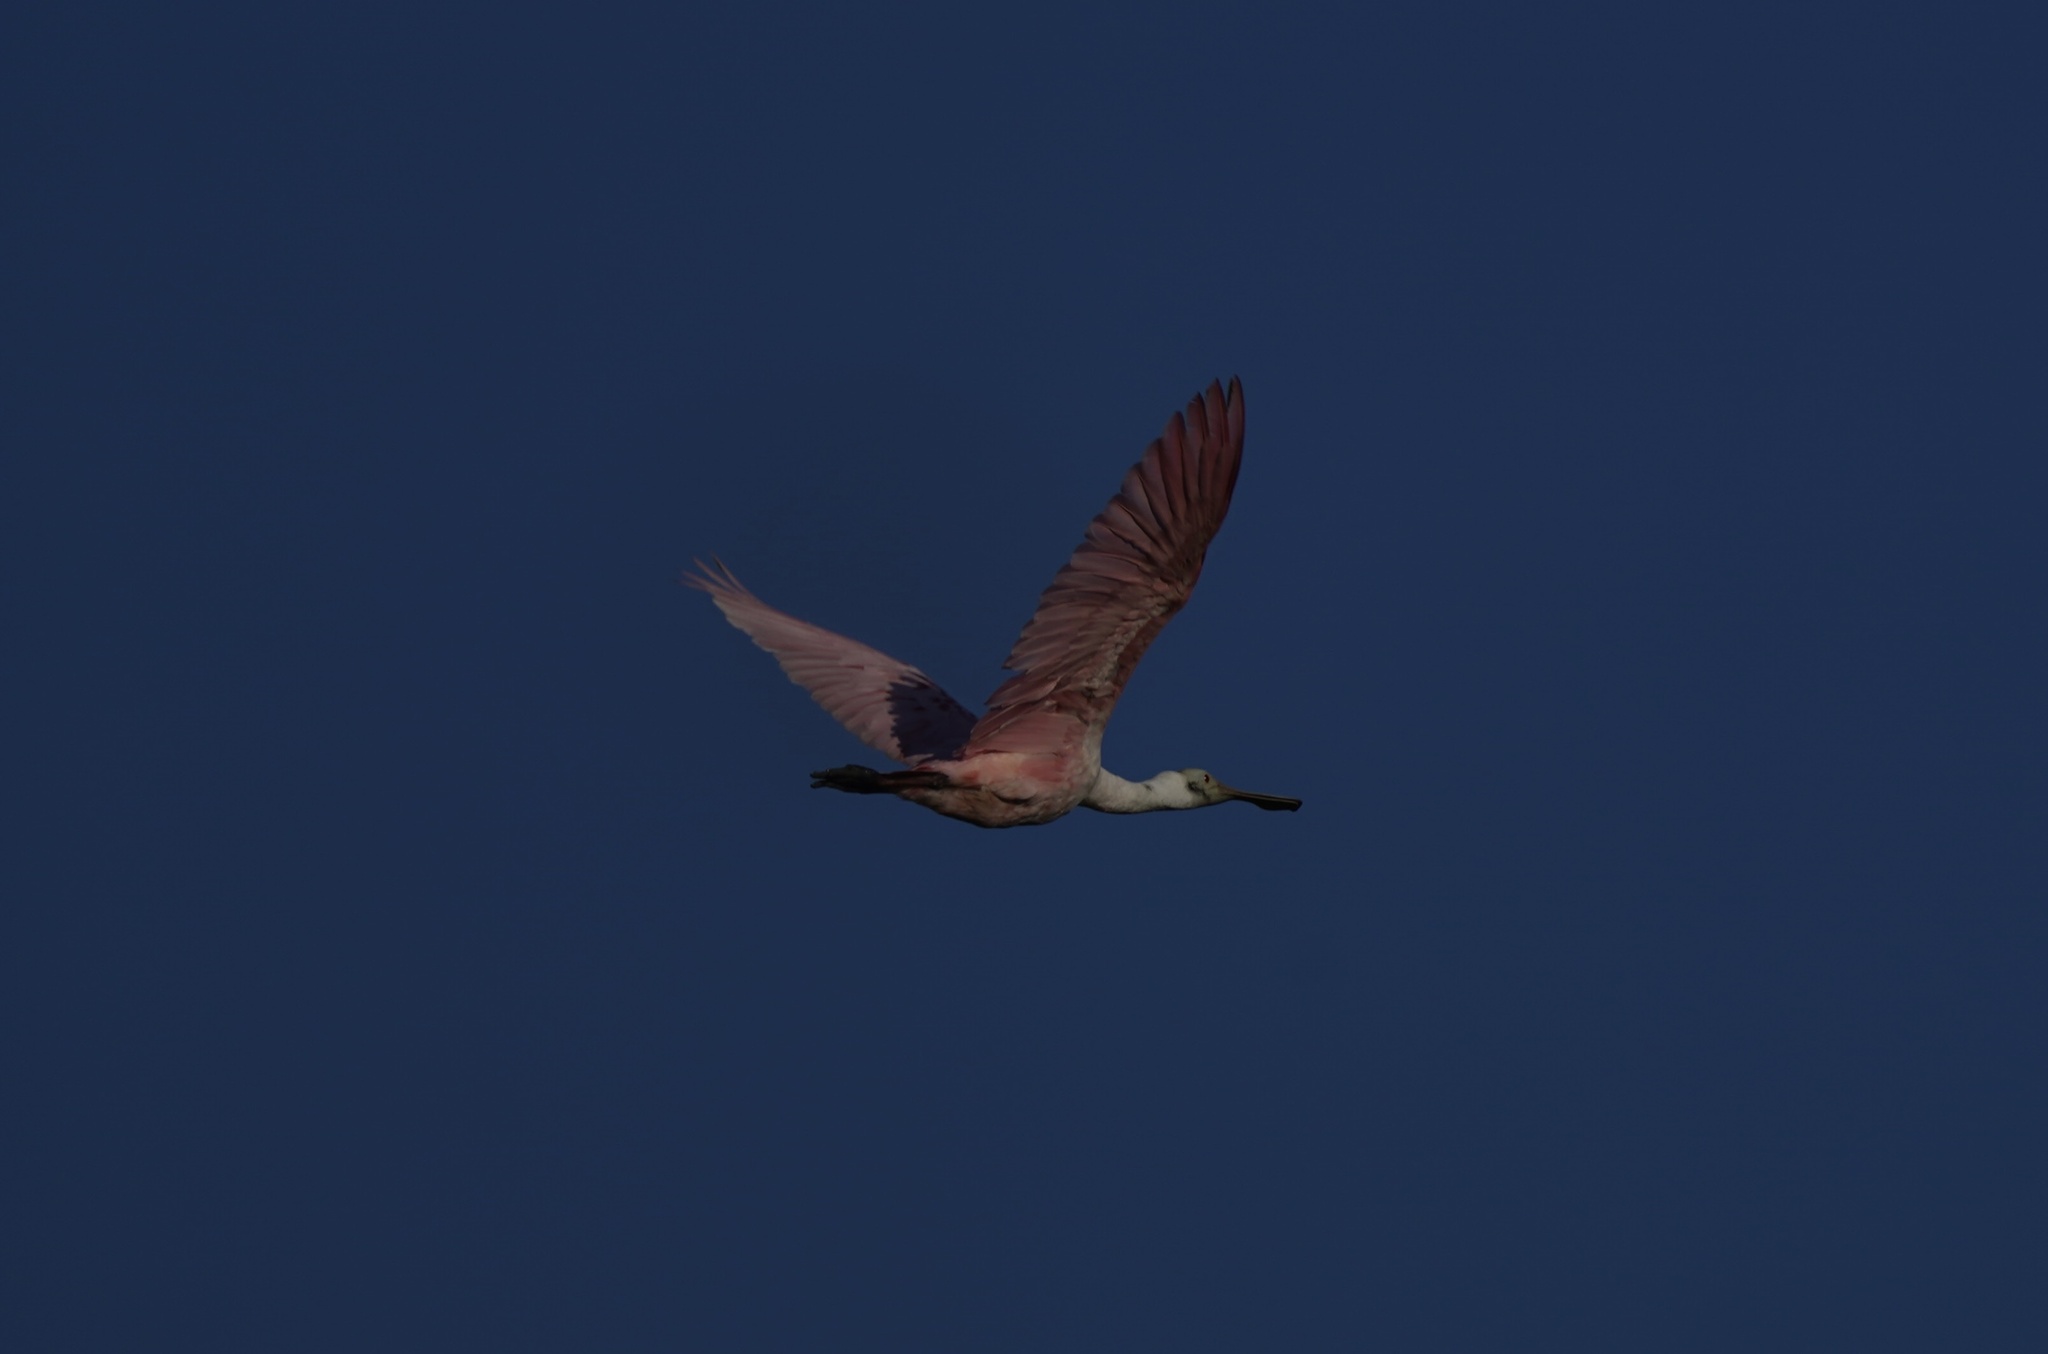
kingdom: Animalia
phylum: Chordata
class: Aves
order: Pelecaniformes
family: Threskiornithidae
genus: Platalea
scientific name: Platalea ajaja
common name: Roseate spoonbill
